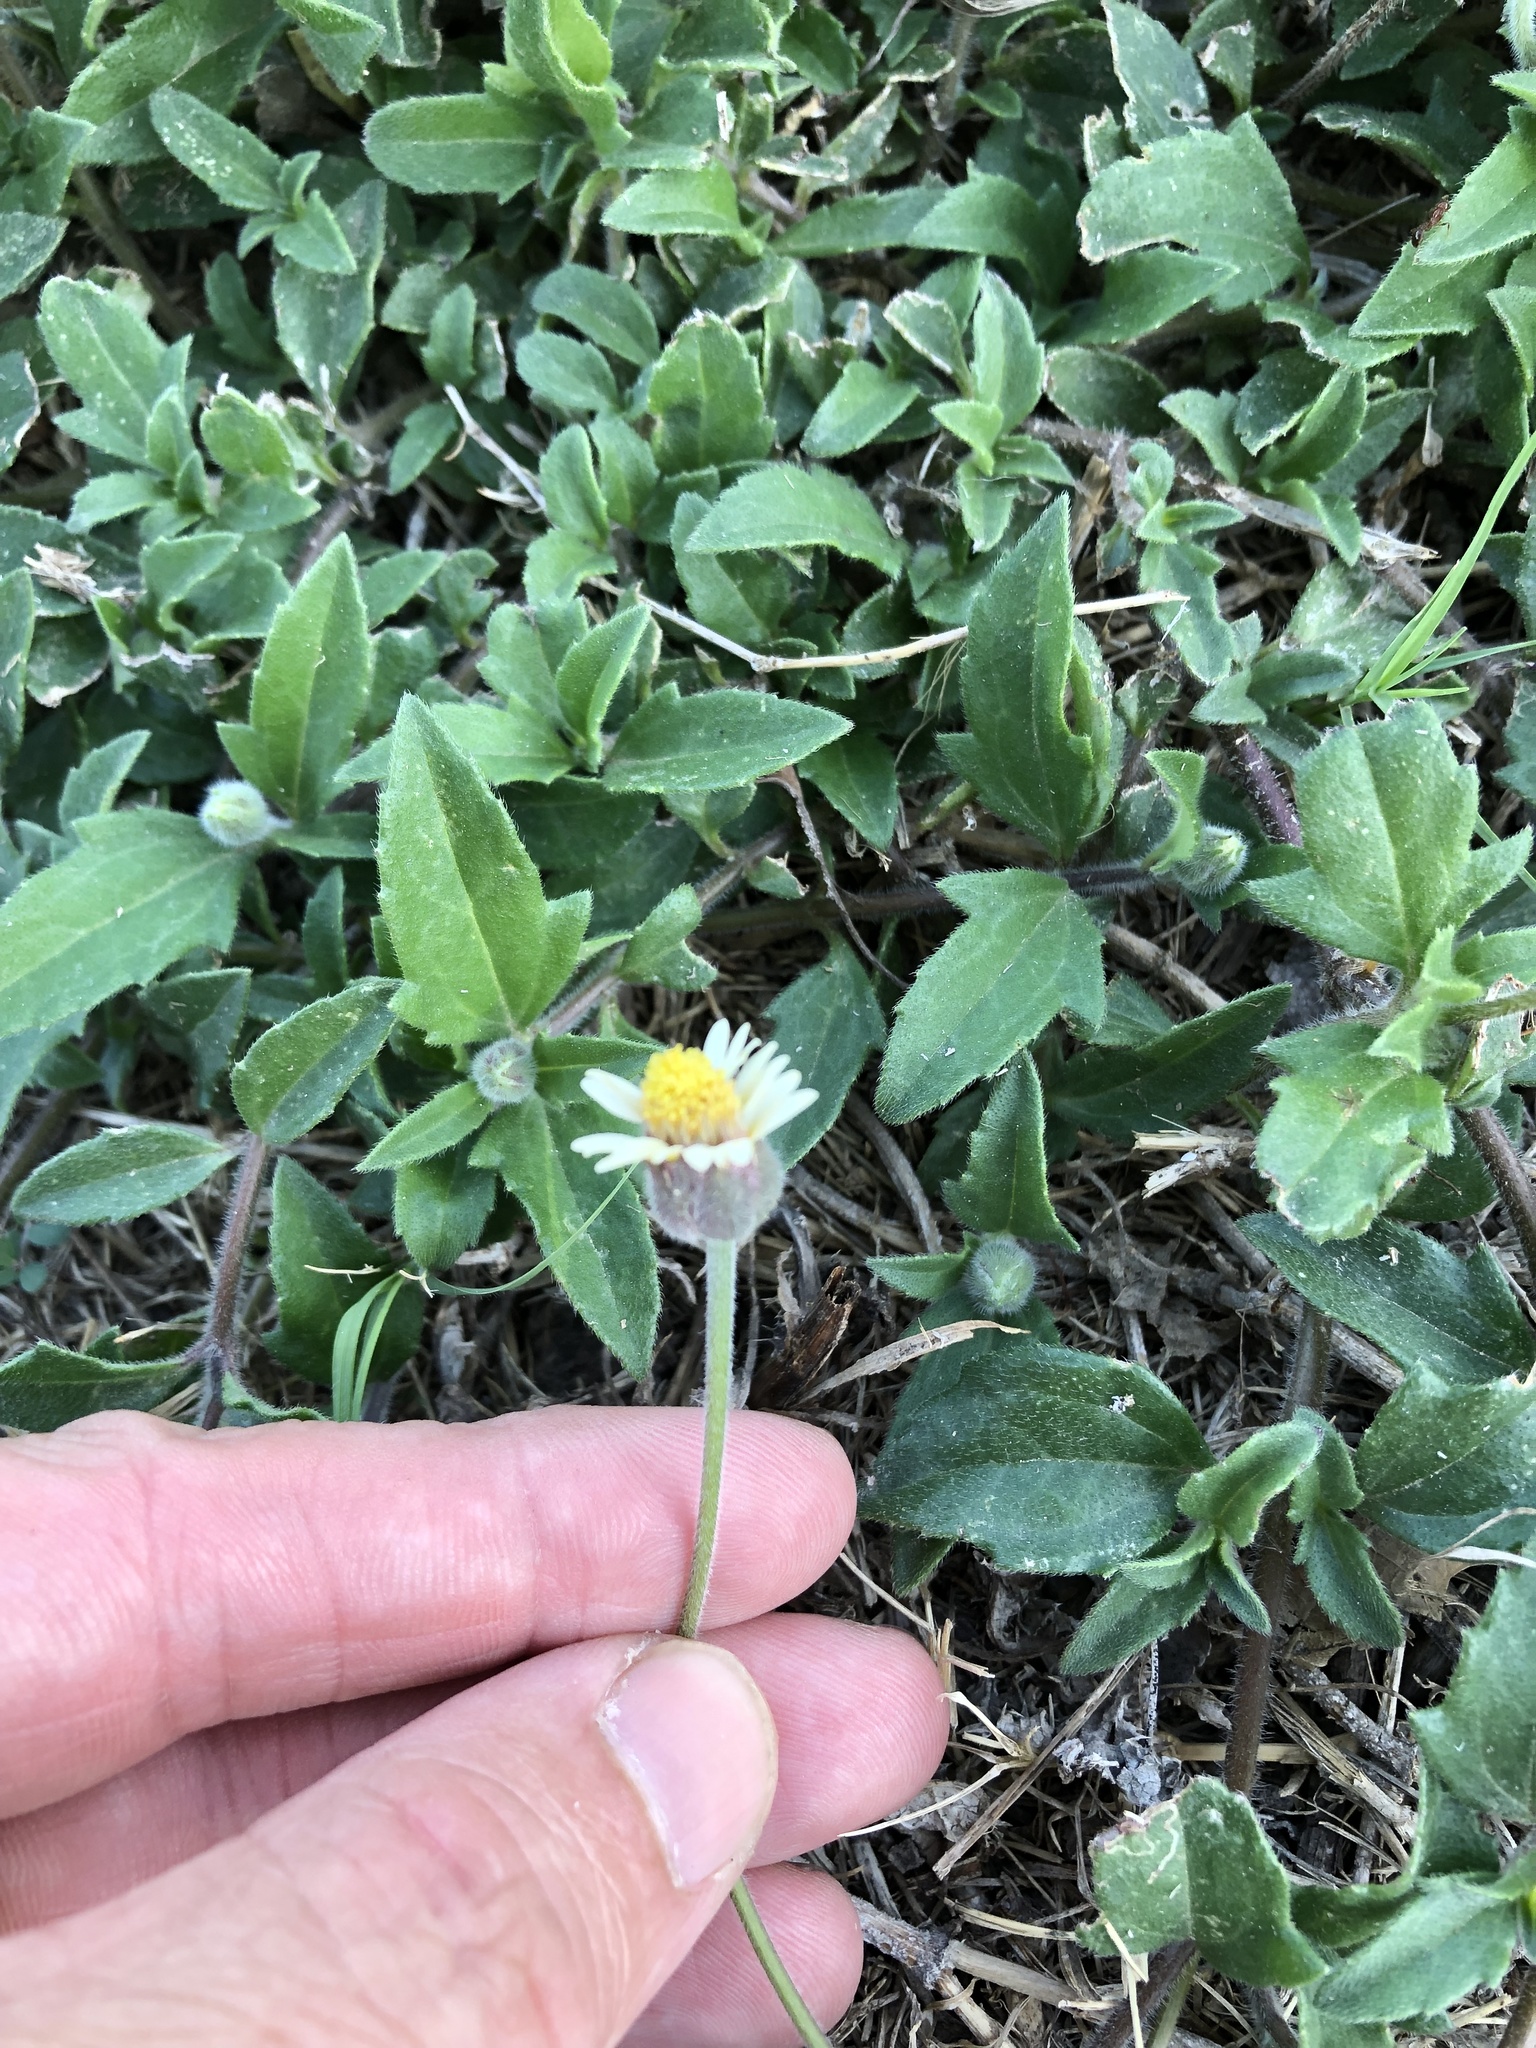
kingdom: Plantae
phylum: Tracheophyta
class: Magnoliopsida
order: Asterales
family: Asteraceae
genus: Tridax
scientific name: Tridax procumbens
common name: Coatbuttons
